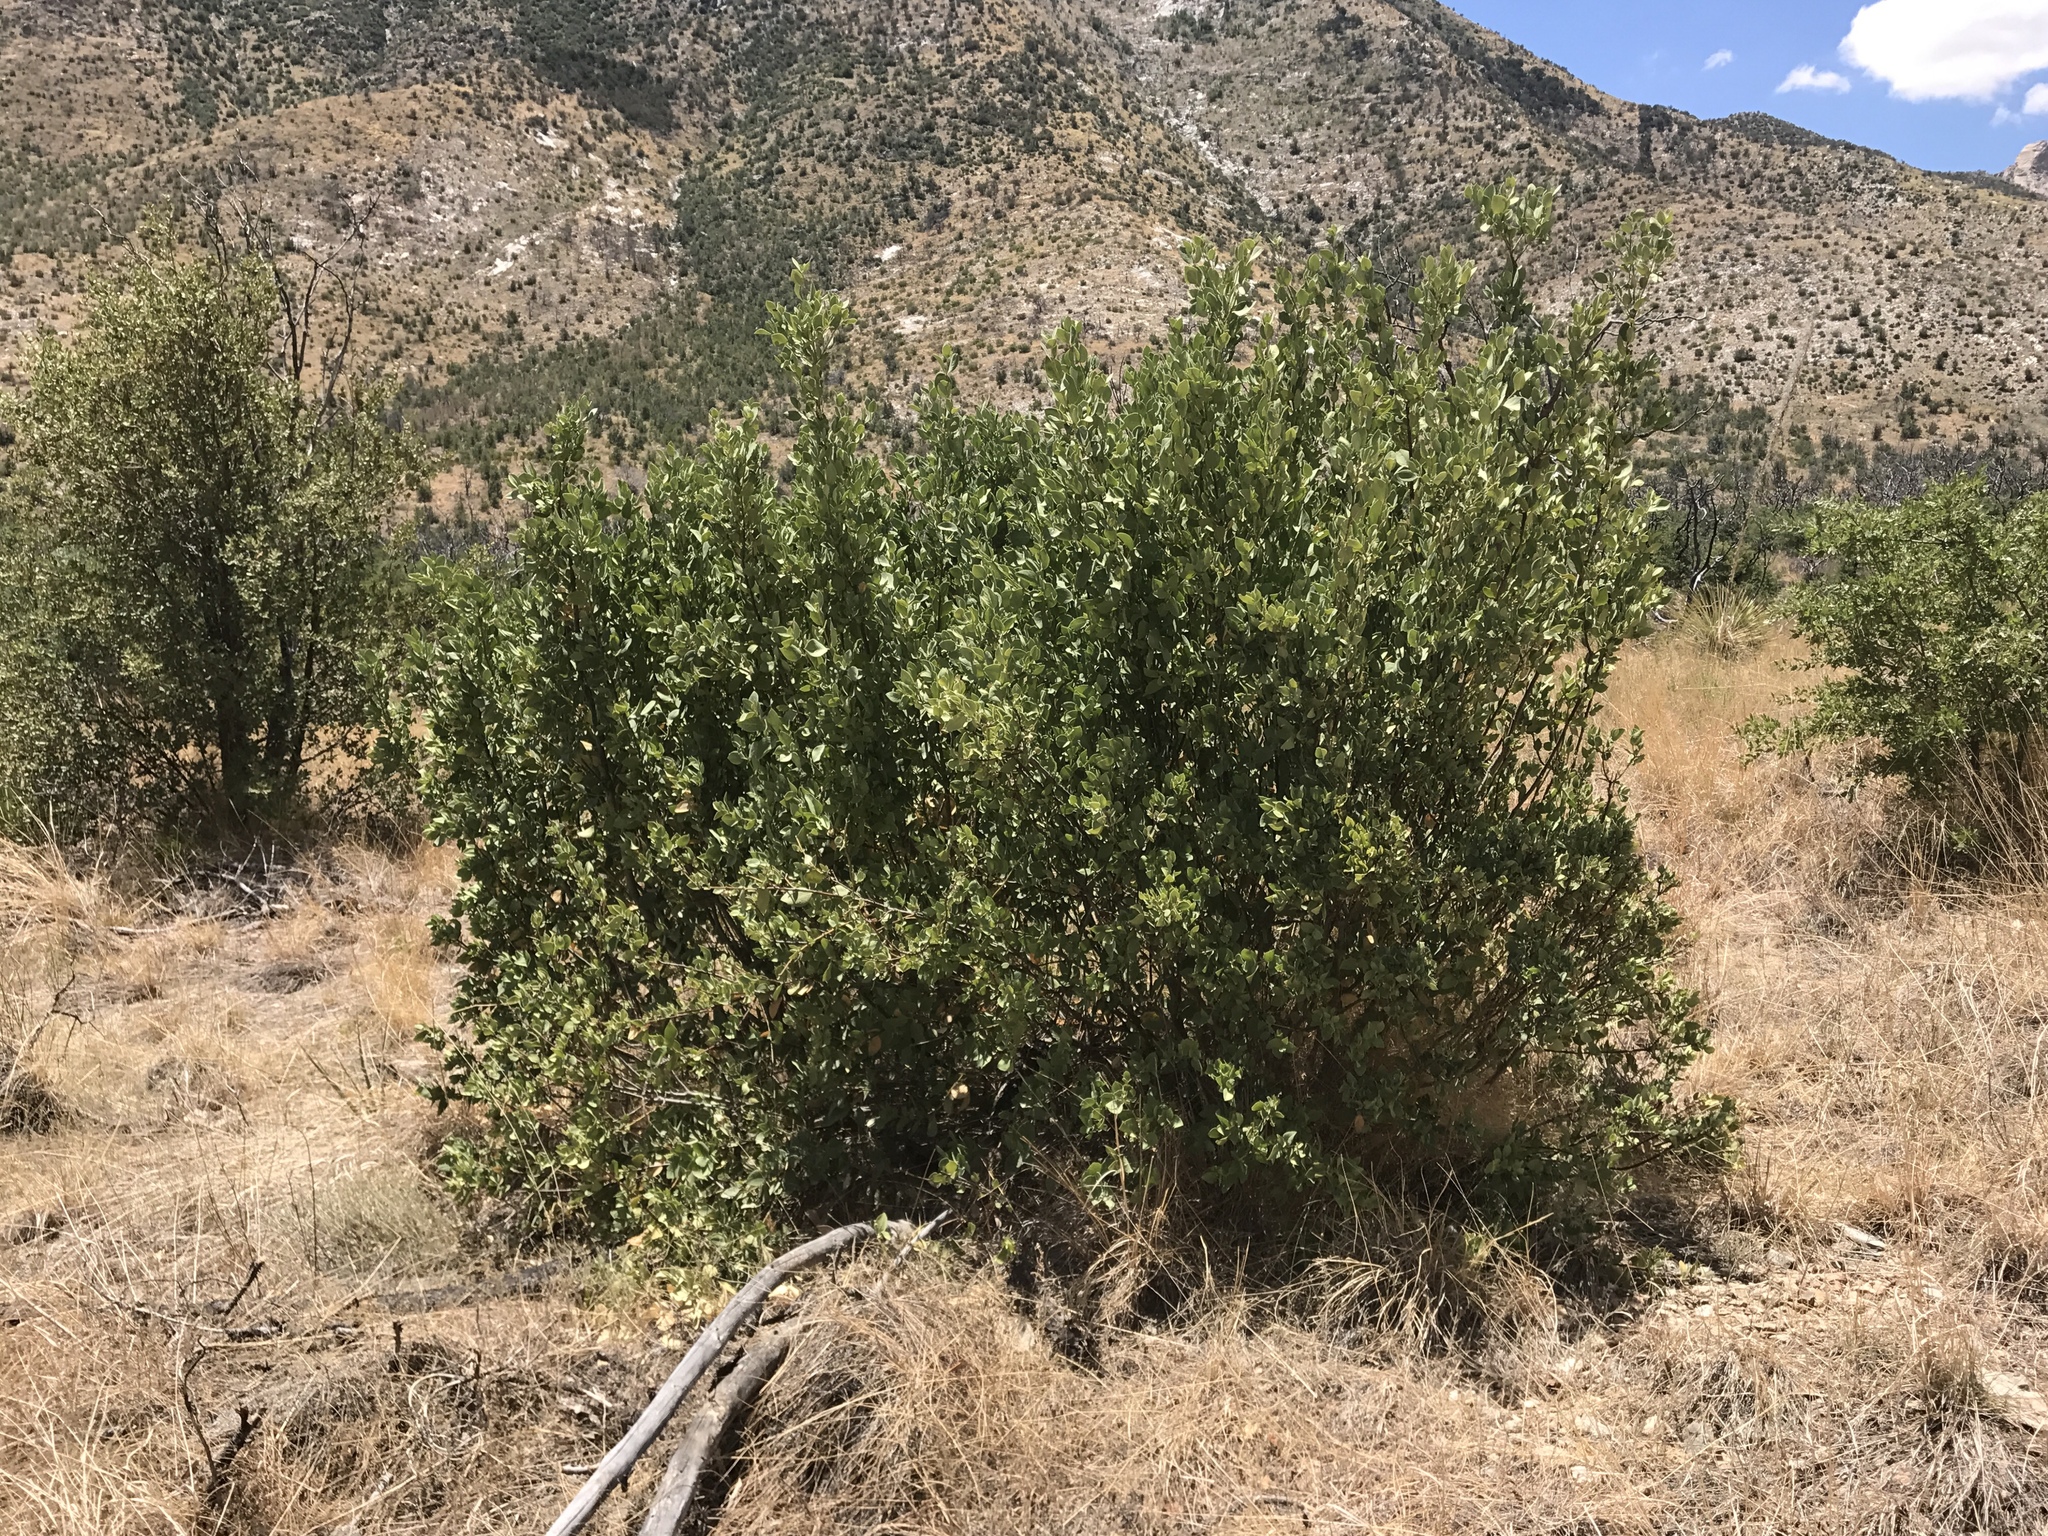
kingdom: Plantae
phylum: Tracheophyta
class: Magnoliopsida
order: Garryales
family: Garryaceae
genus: Garrya
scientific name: Garrya wrightii
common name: Wright's silktassel
